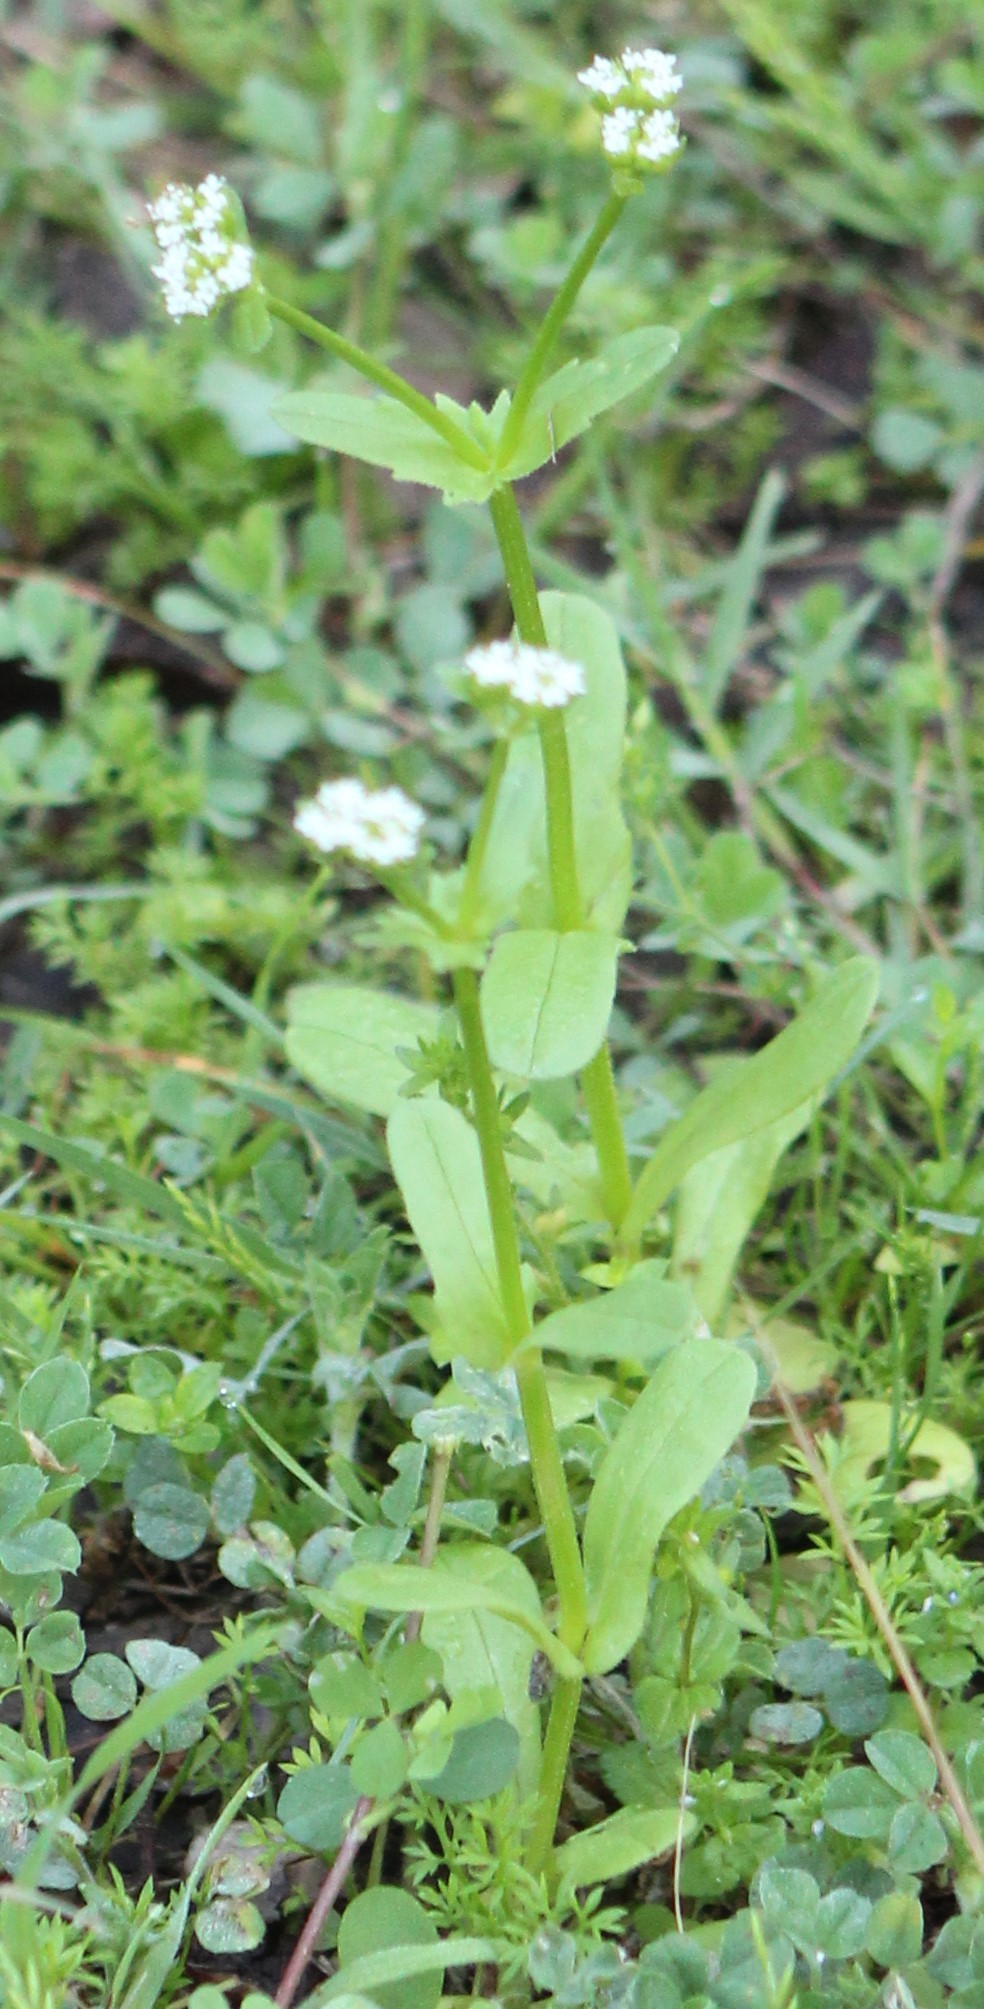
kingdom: Plantae
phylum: Tracheophyta
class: Magnoliopsida
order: Dipsacales
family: Caprifoliaceae
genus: Valerianella
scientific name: Valerianella radiata
